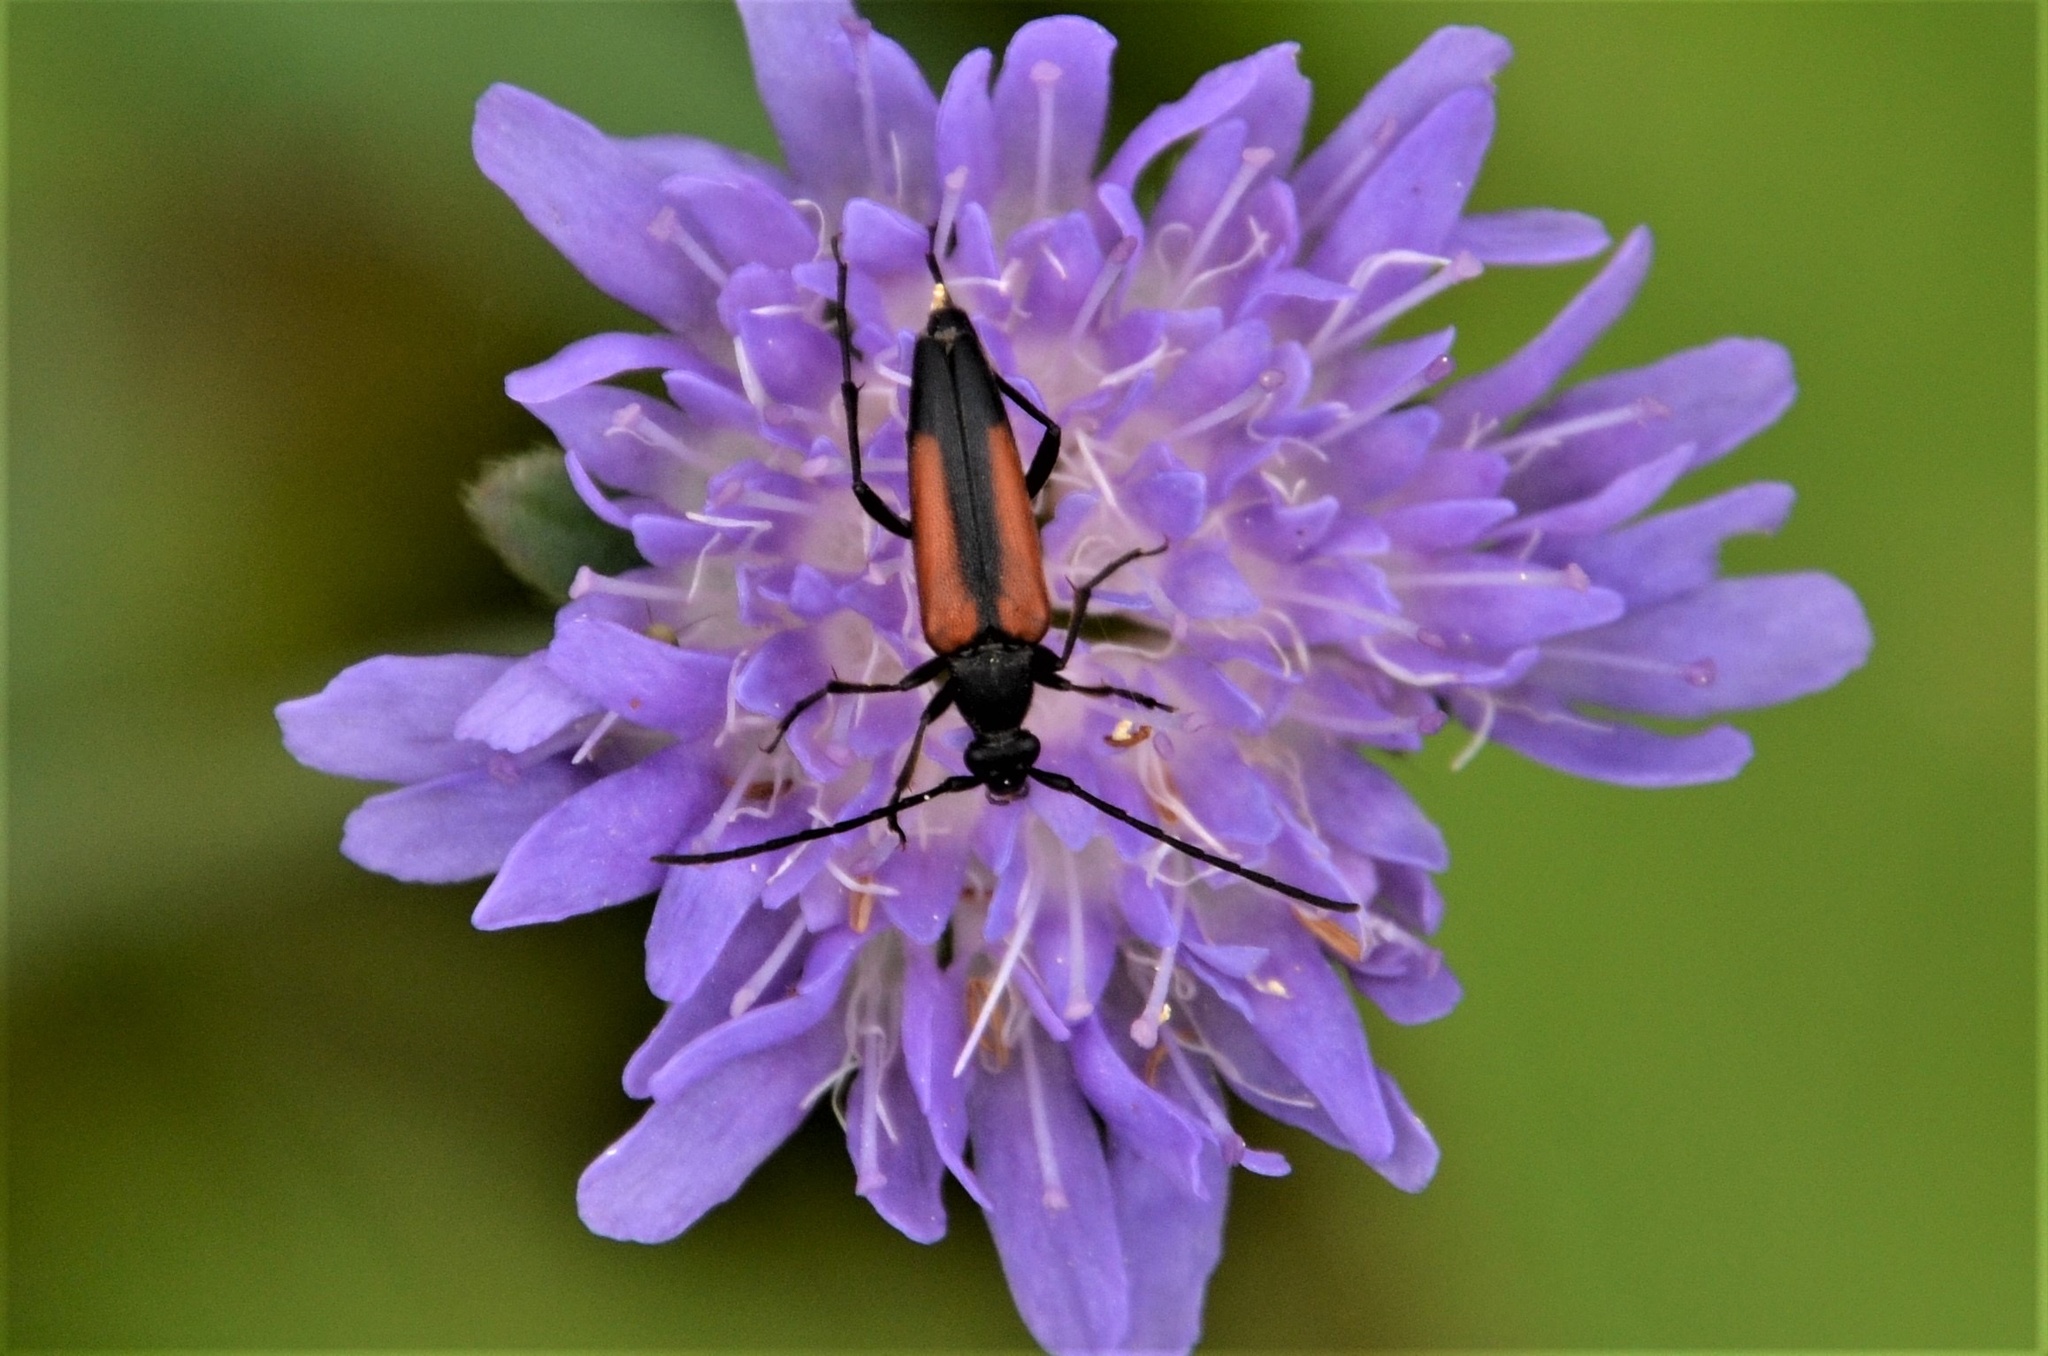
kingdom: Animalia
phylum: Arthropoda
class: Insecta
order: Coleoptera
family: Cerambycidae
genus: Stenurella
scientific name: Stenurella melanura
